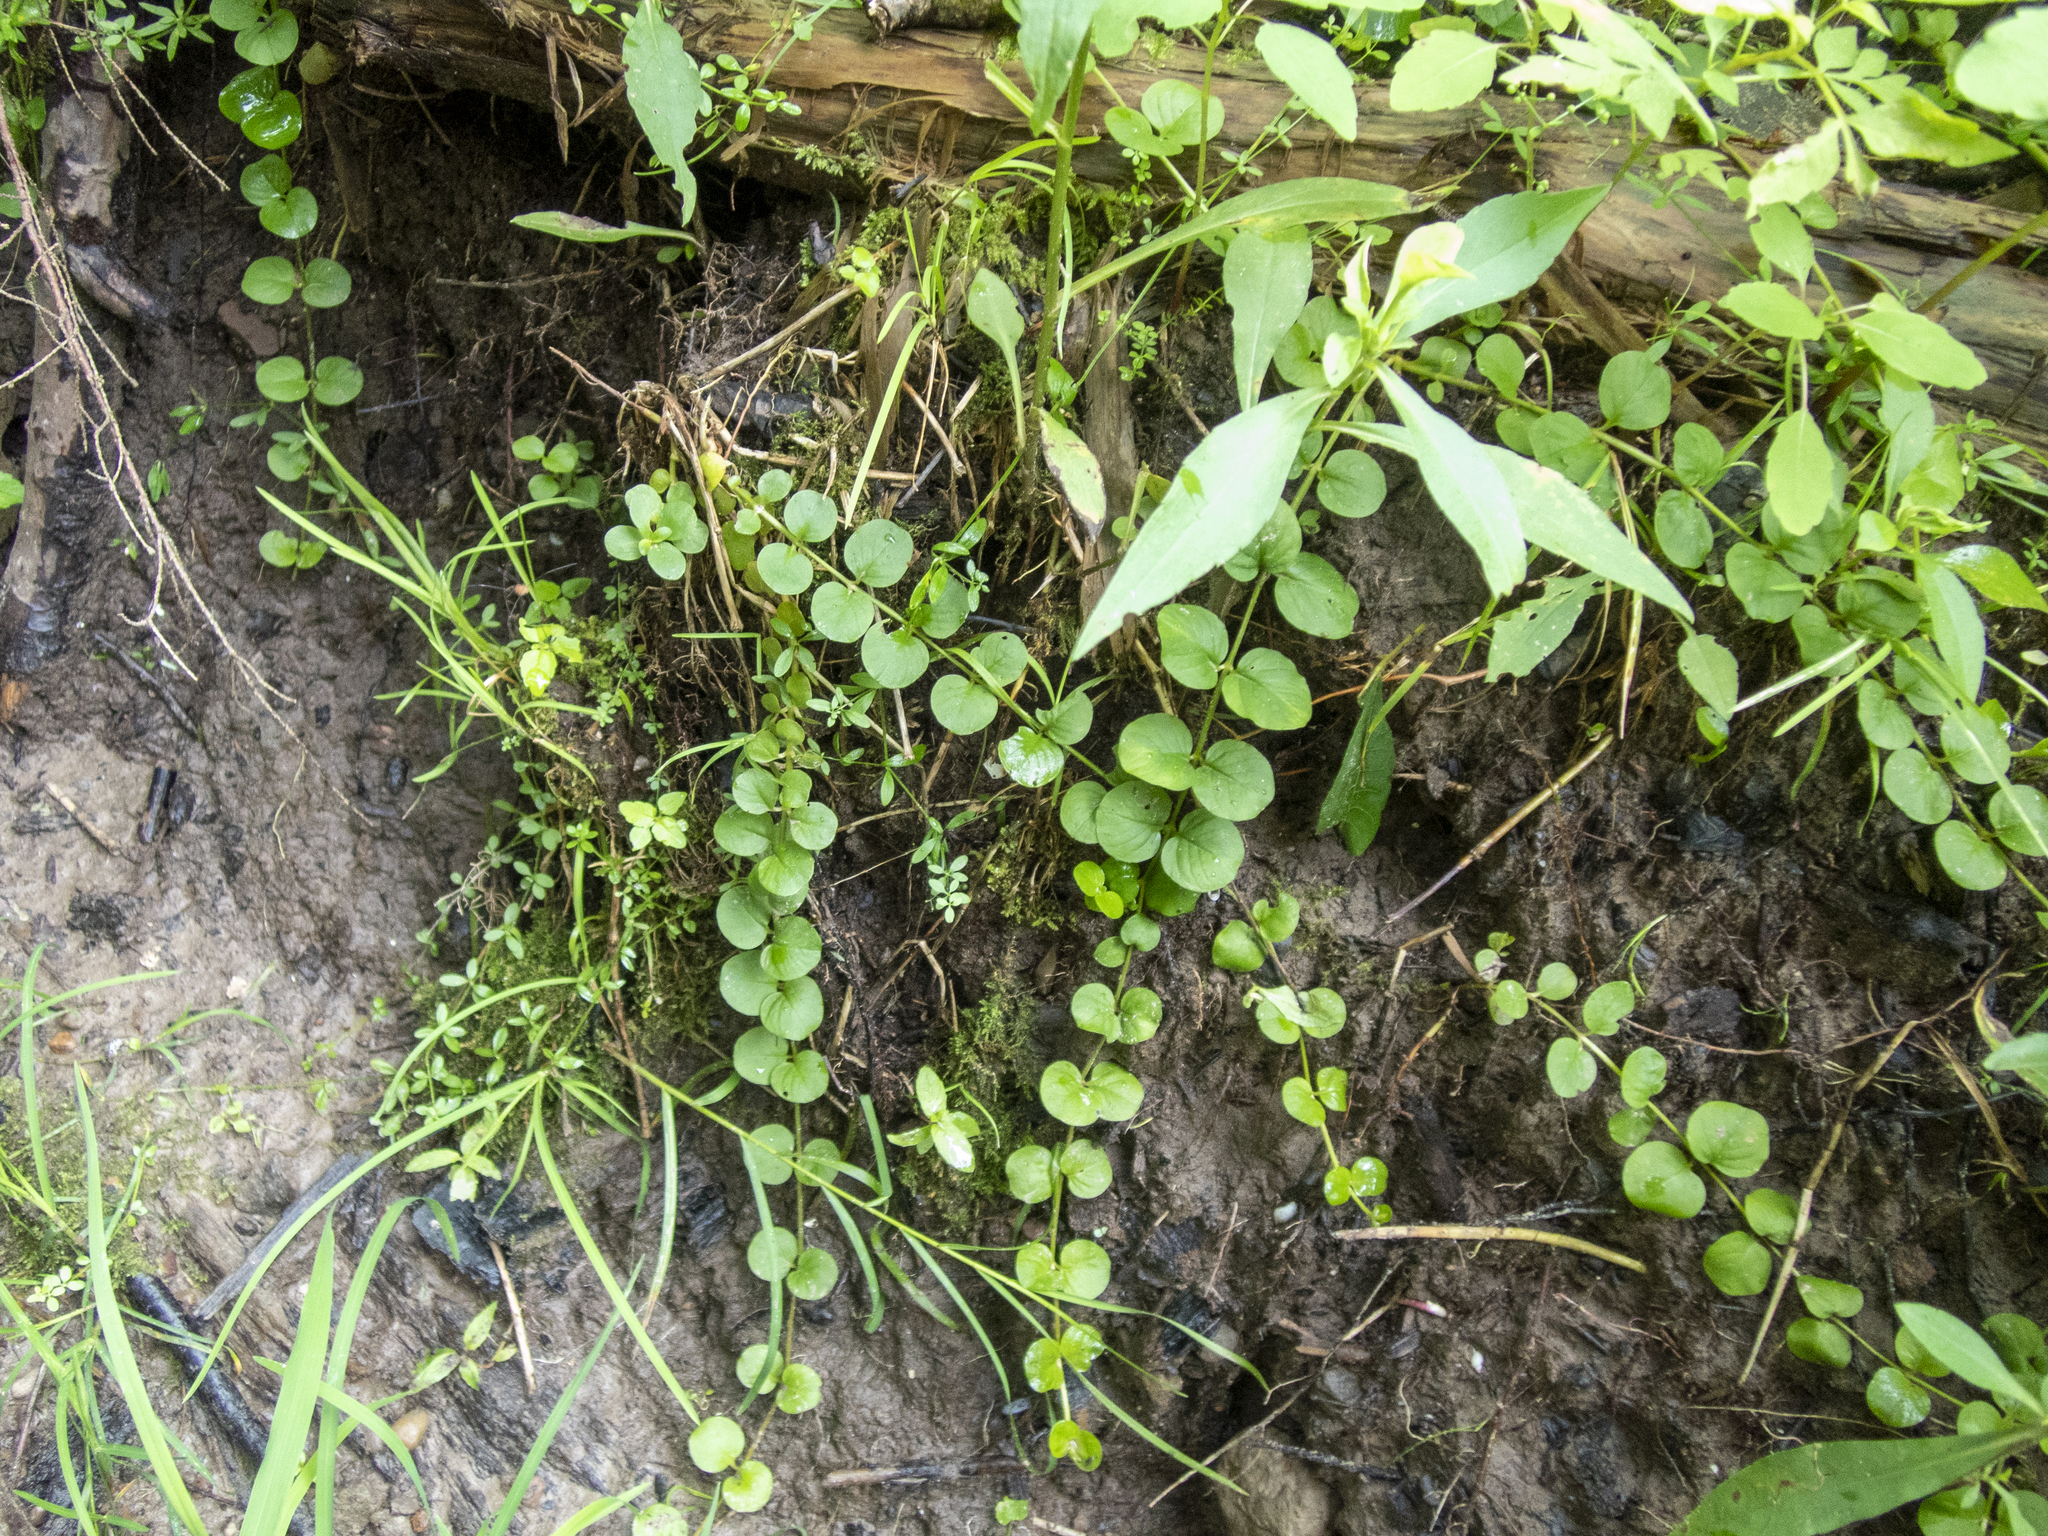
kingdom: Plantae
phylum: Tracheophyta
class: Magnoliopsida
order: Ericales
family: Primulaceae
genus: Lysimachia
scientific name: Lysimachia nummularia
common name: Moneywort
